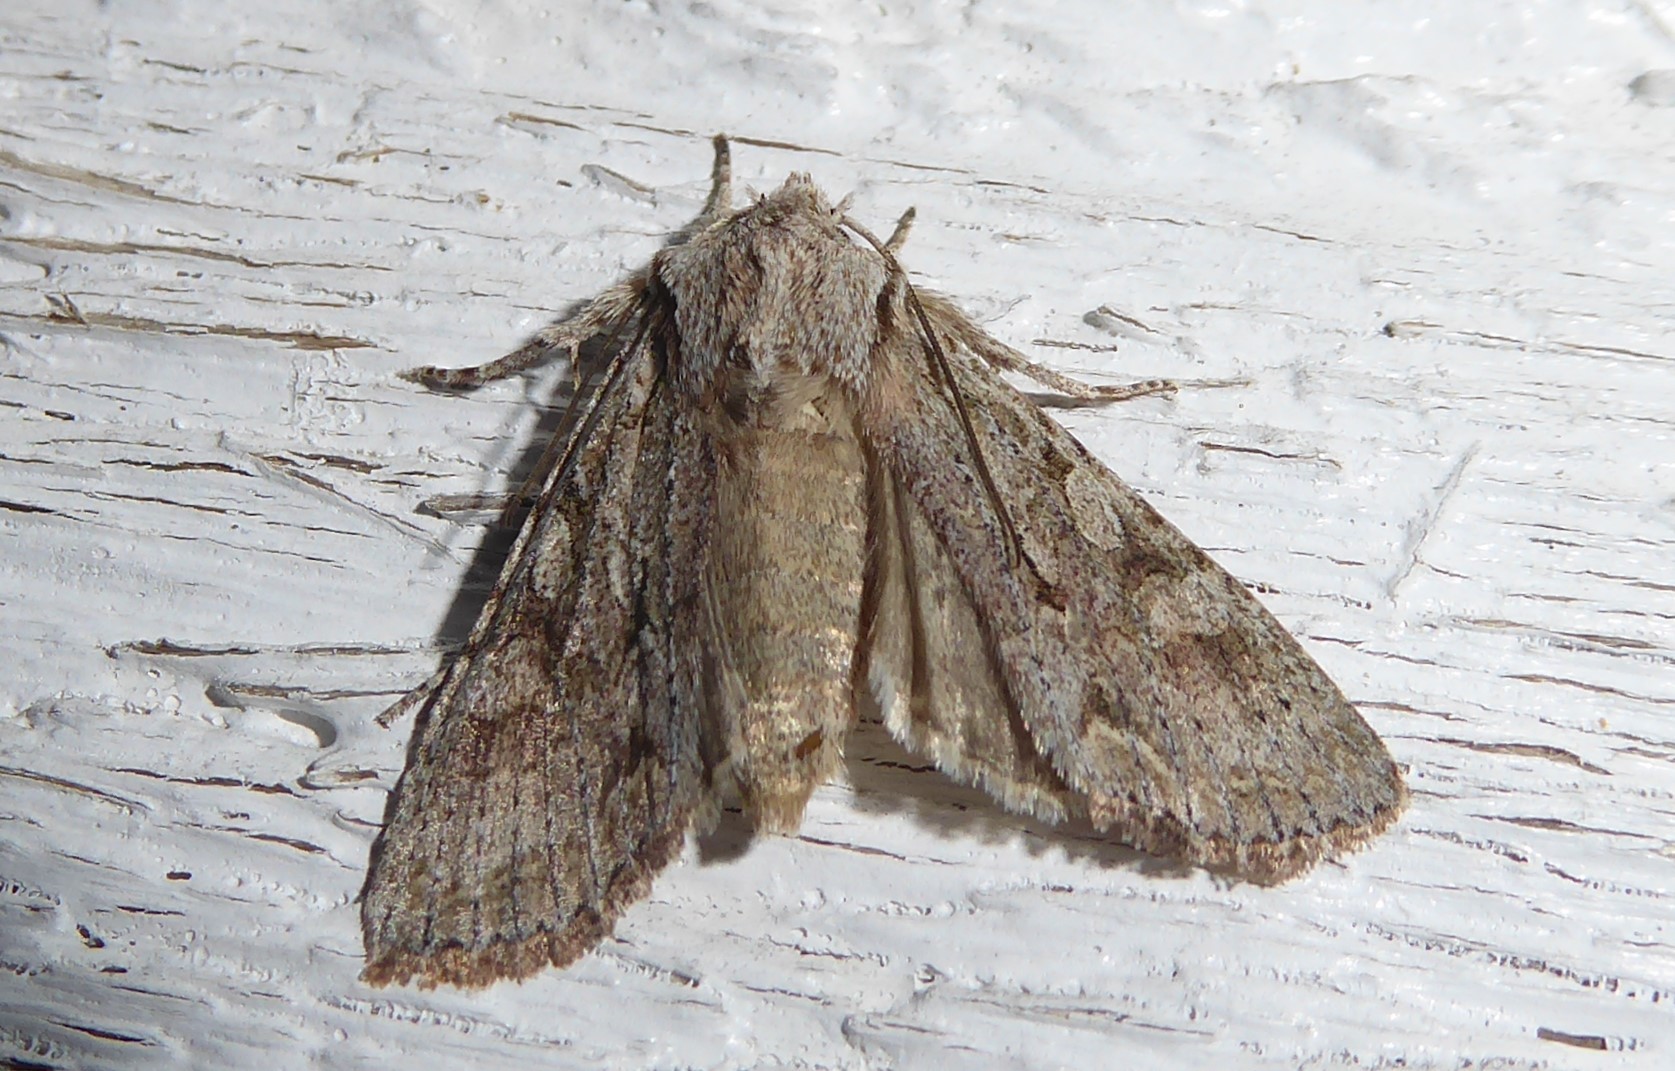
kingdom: Animalia
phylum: Arthropoda
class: Insecta
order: Lepidoptera
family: Noctuidae
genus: Ichneutica
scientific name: Ichneutica mutans
